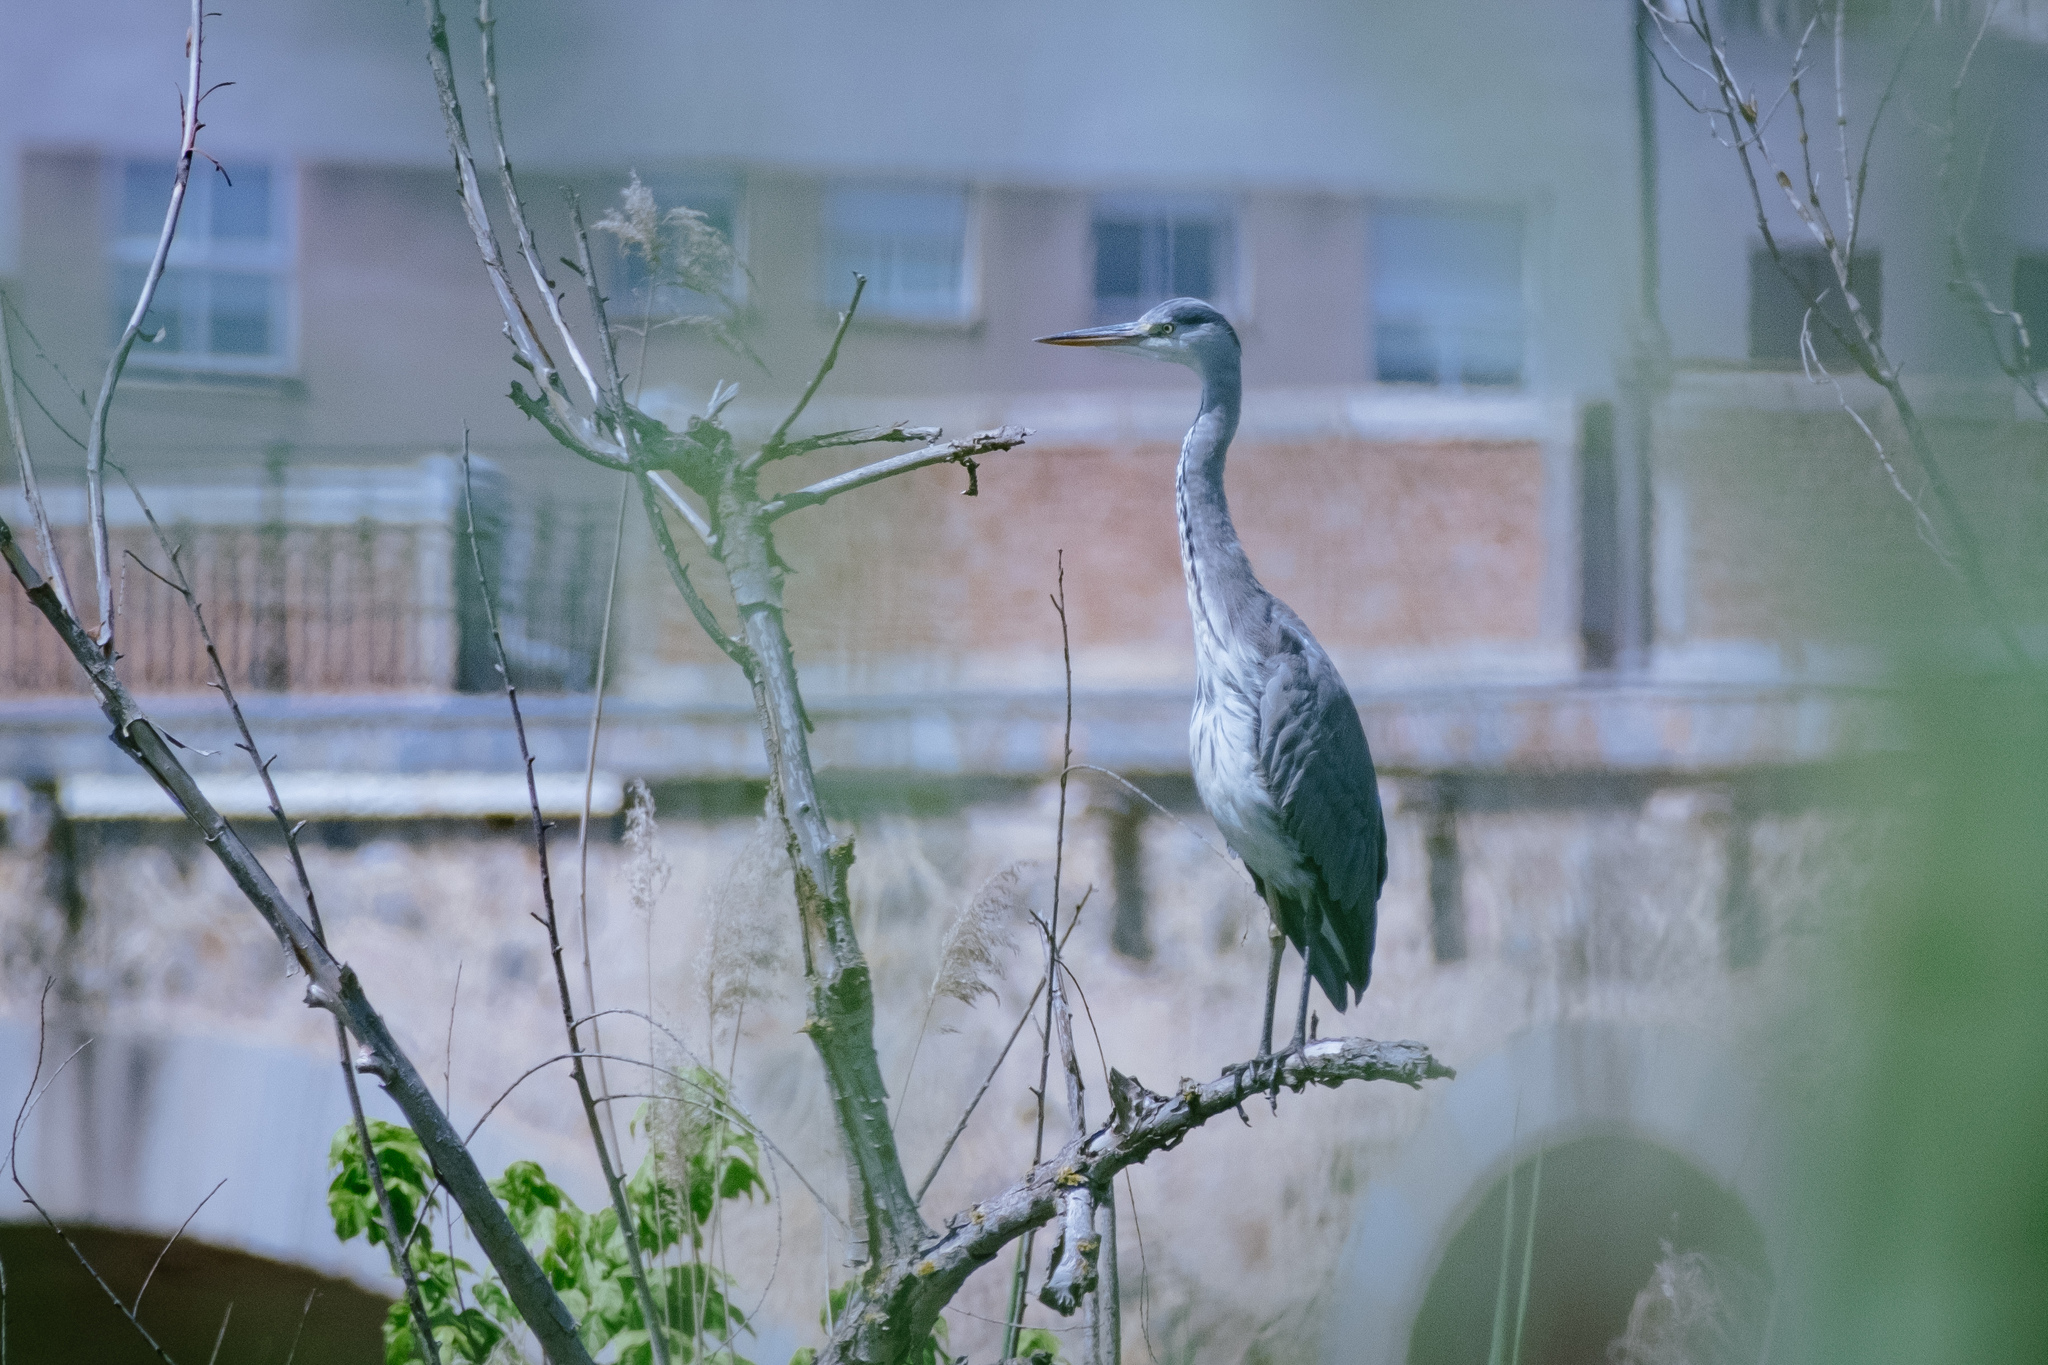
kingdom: Animalia
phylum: Chordata
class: Aves
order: Pelecaniformes
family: Ardeidae
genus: Ardea
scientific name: Ardea cinerea
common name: Grey heron
